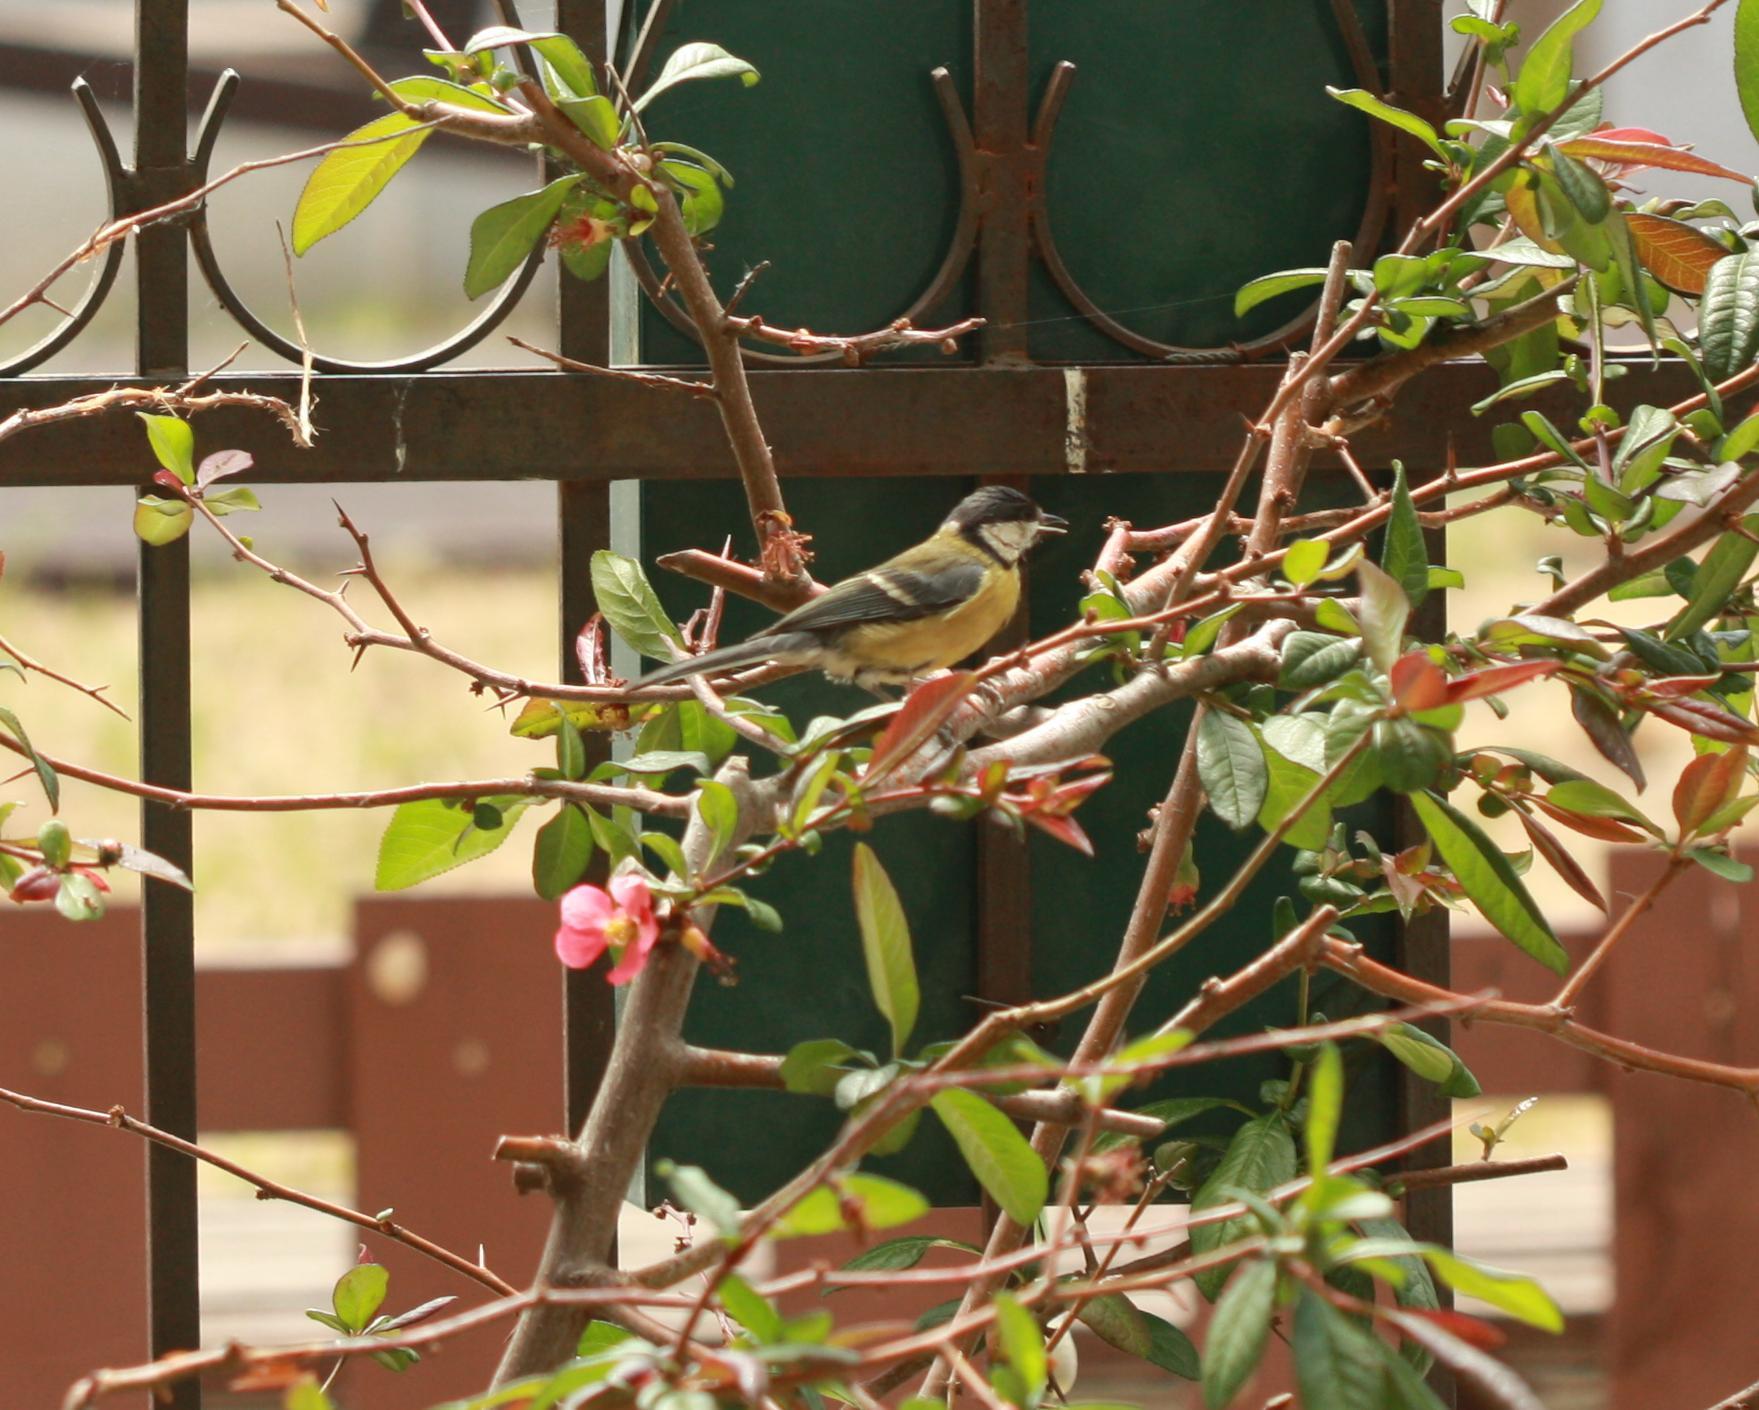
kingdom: Animalia
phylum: Chordata
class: Aves
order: Passeriformes
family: Paridae
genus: Parus
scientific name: Parus major
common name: Great tit
